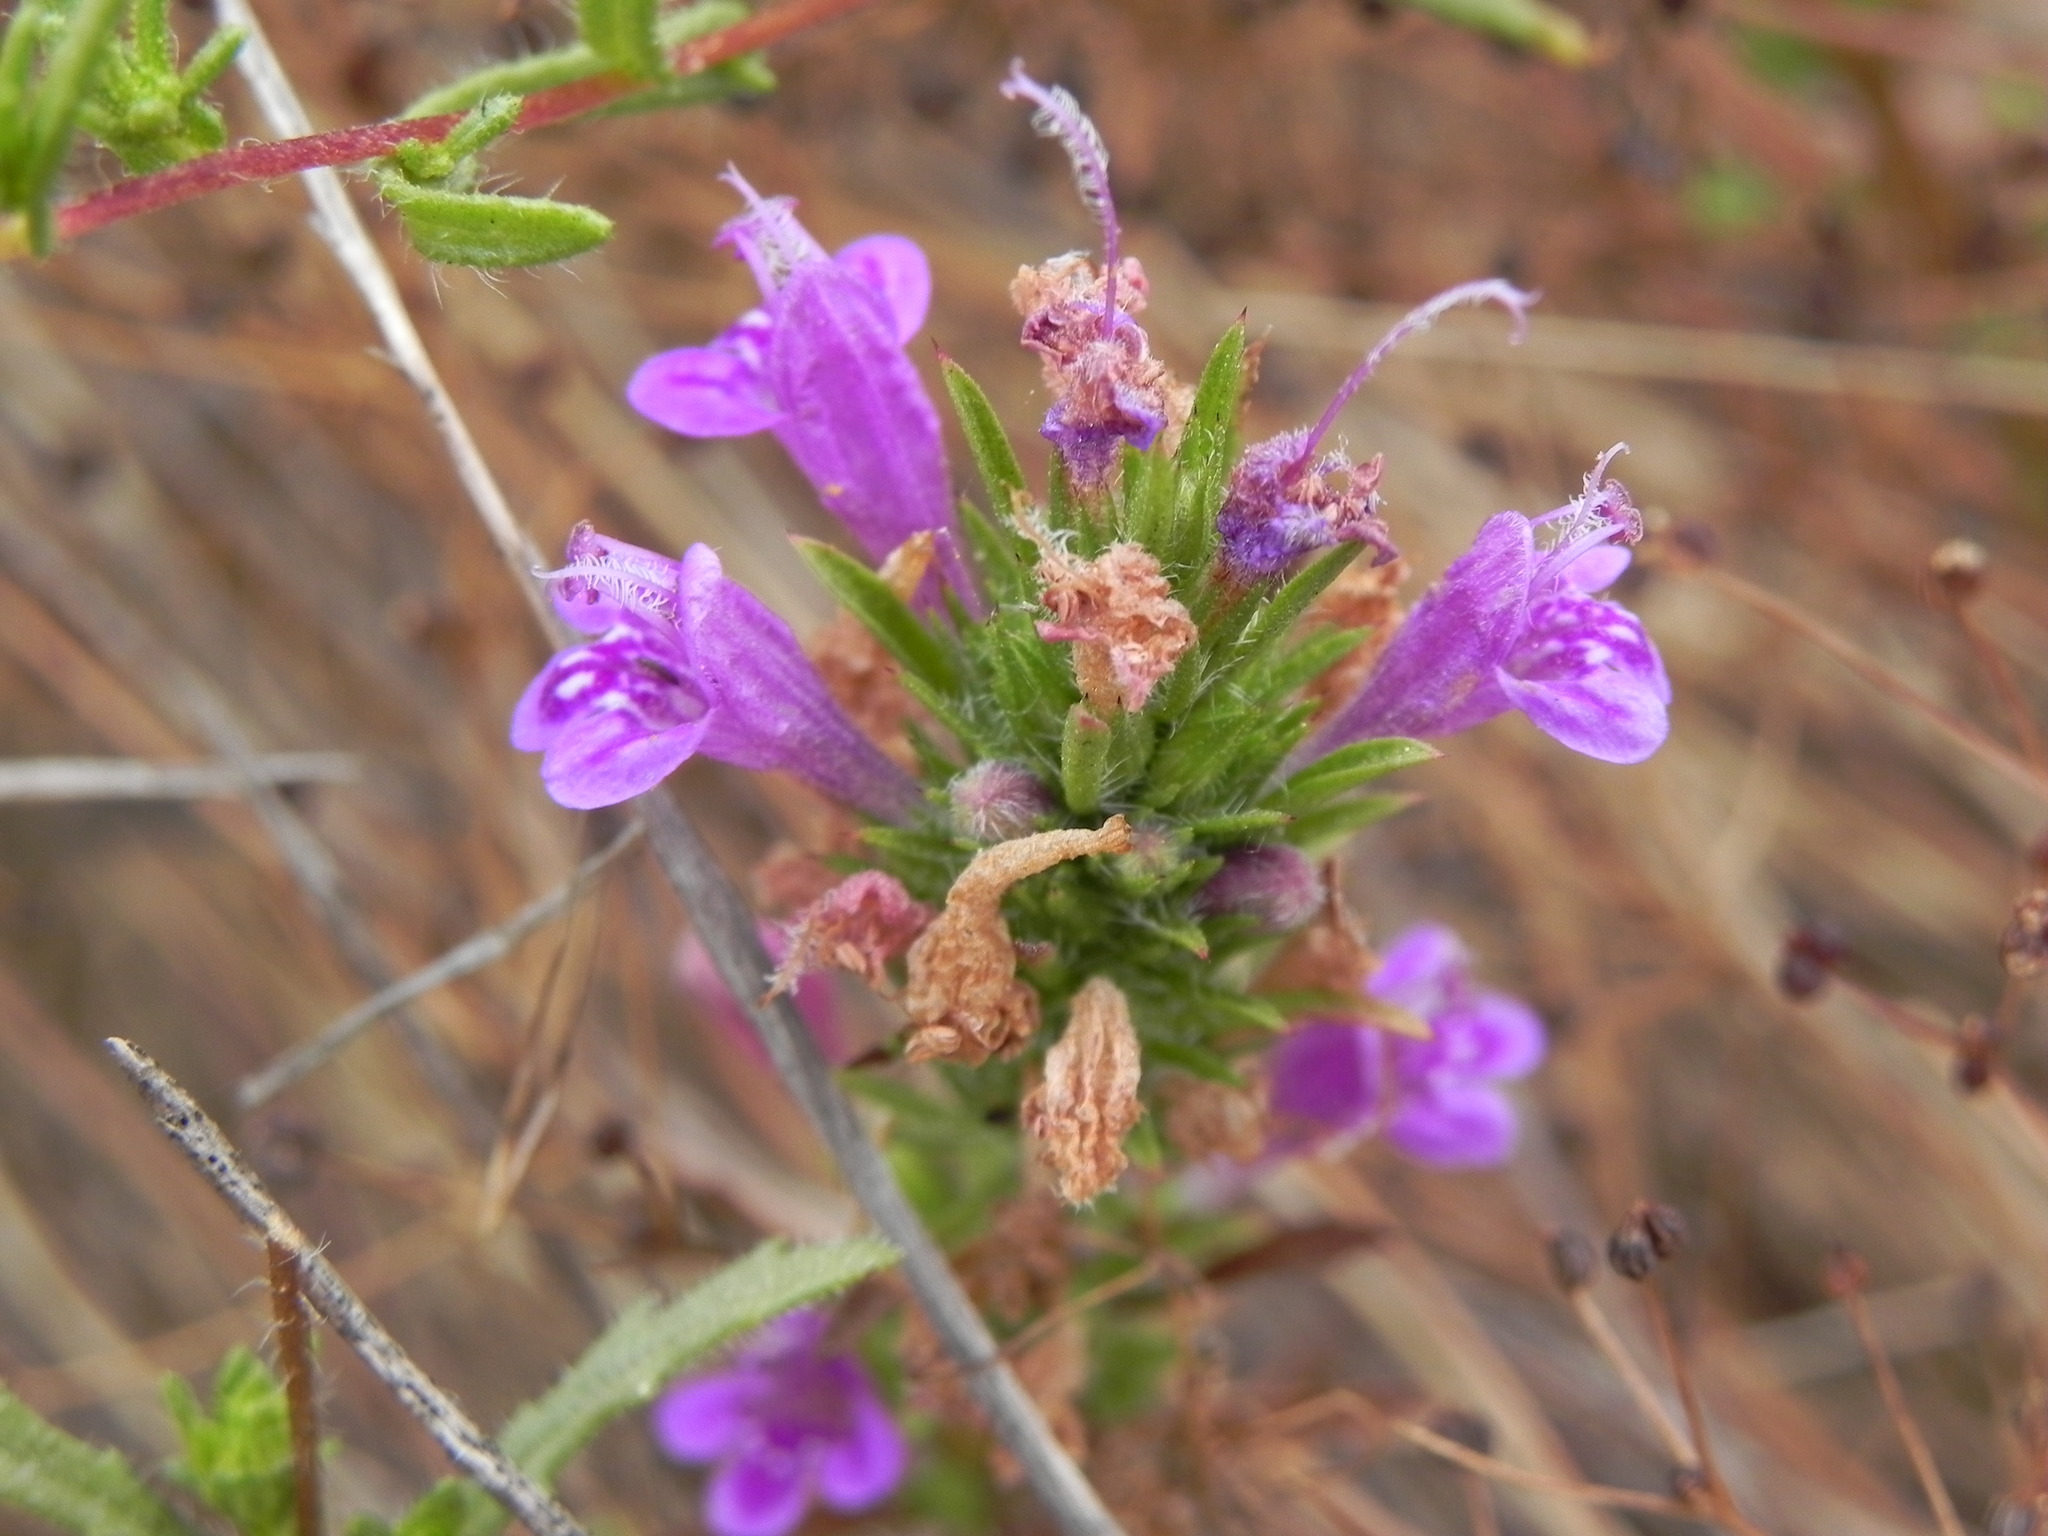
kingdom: Plantae
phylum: Tracheophyta
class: Magnoliopsida
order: Lamiales
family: Lamiaceae
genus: Pogogyne
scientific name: Pogogyne nudiuscula
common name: Otay mesa-mint
